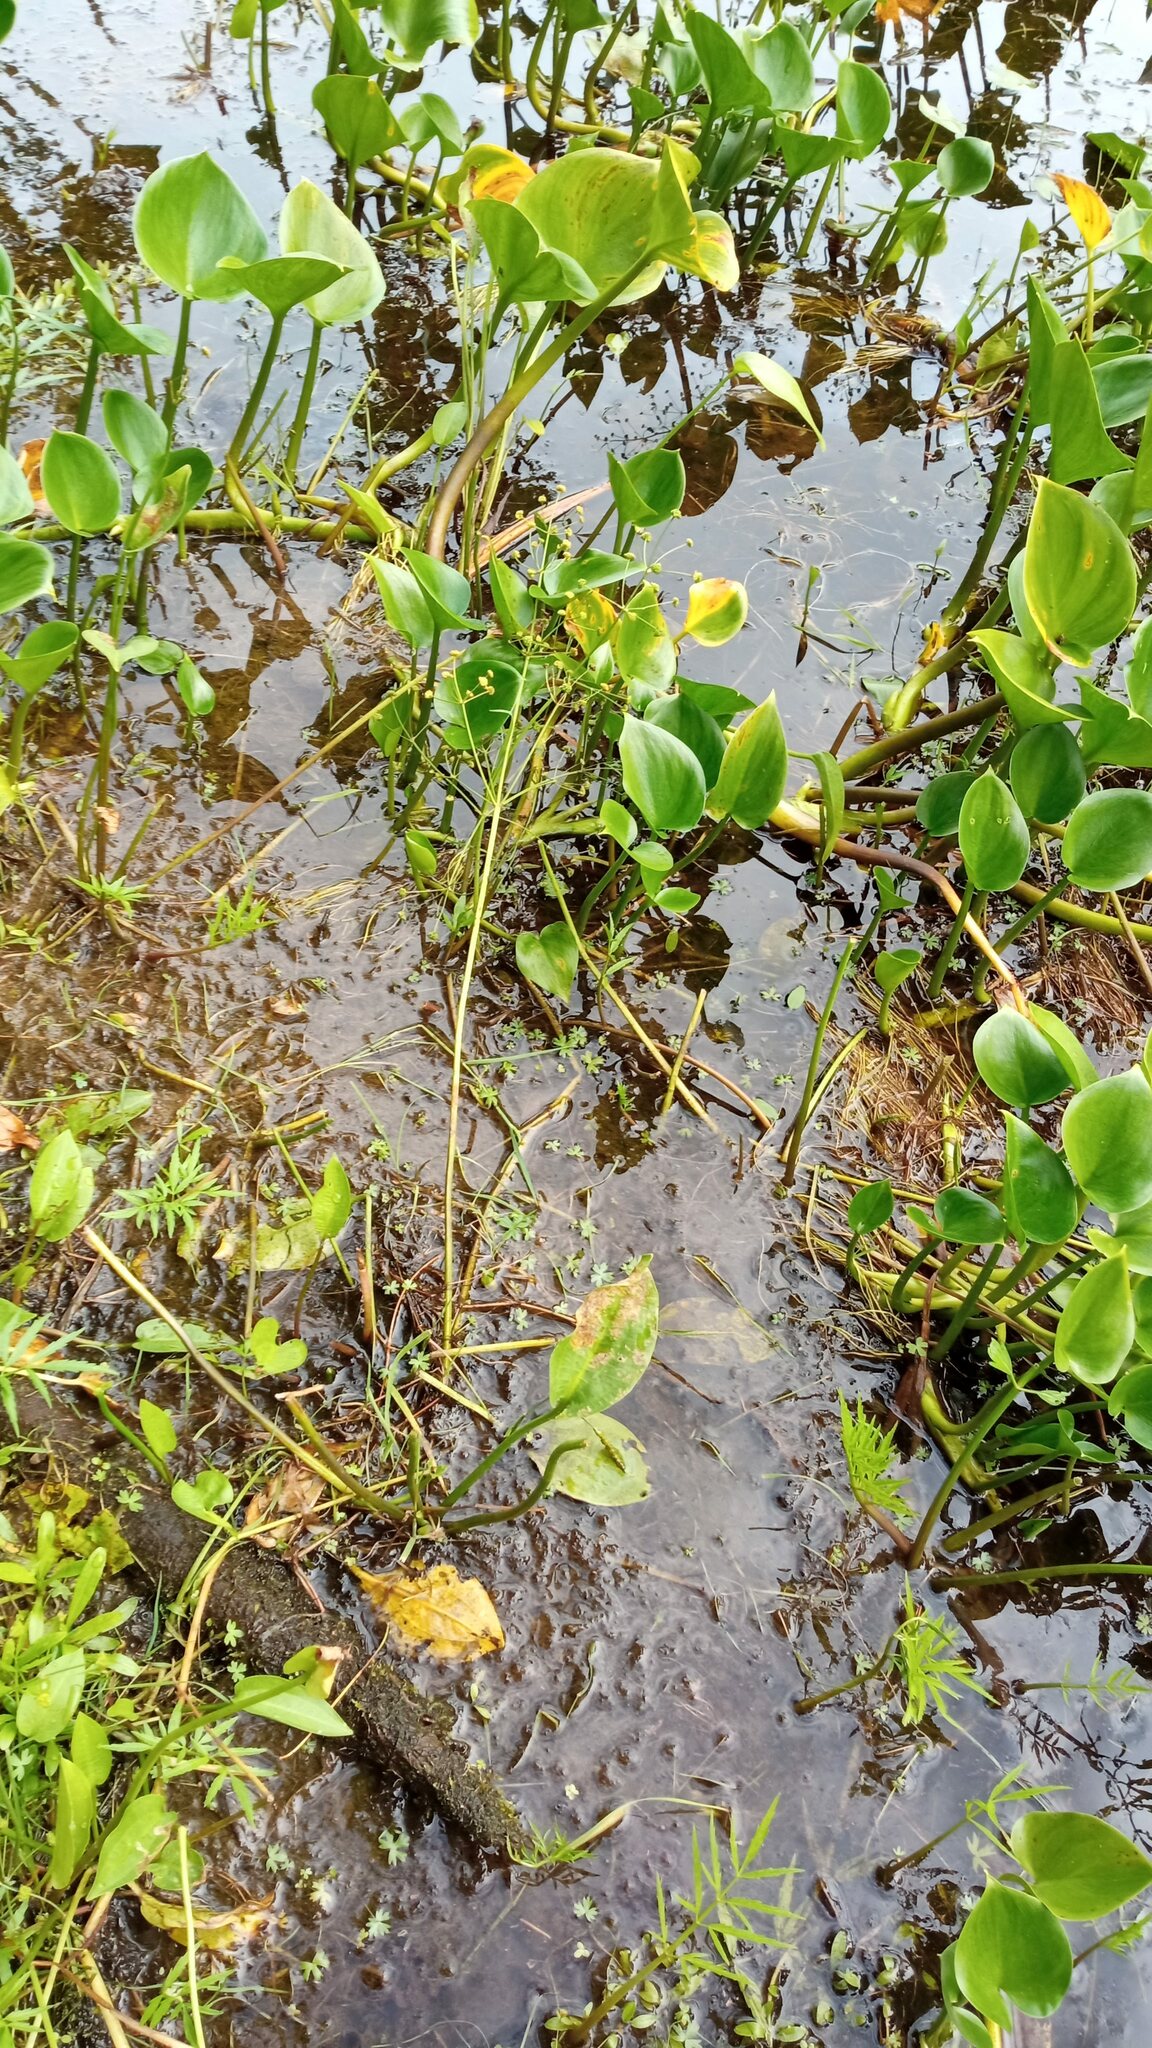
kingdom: Plantae
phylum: Tracheophyta
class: Liliopsida
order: Alismatales
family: Araceae
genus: Calla
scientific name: Calla palustris
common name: Bog arum
